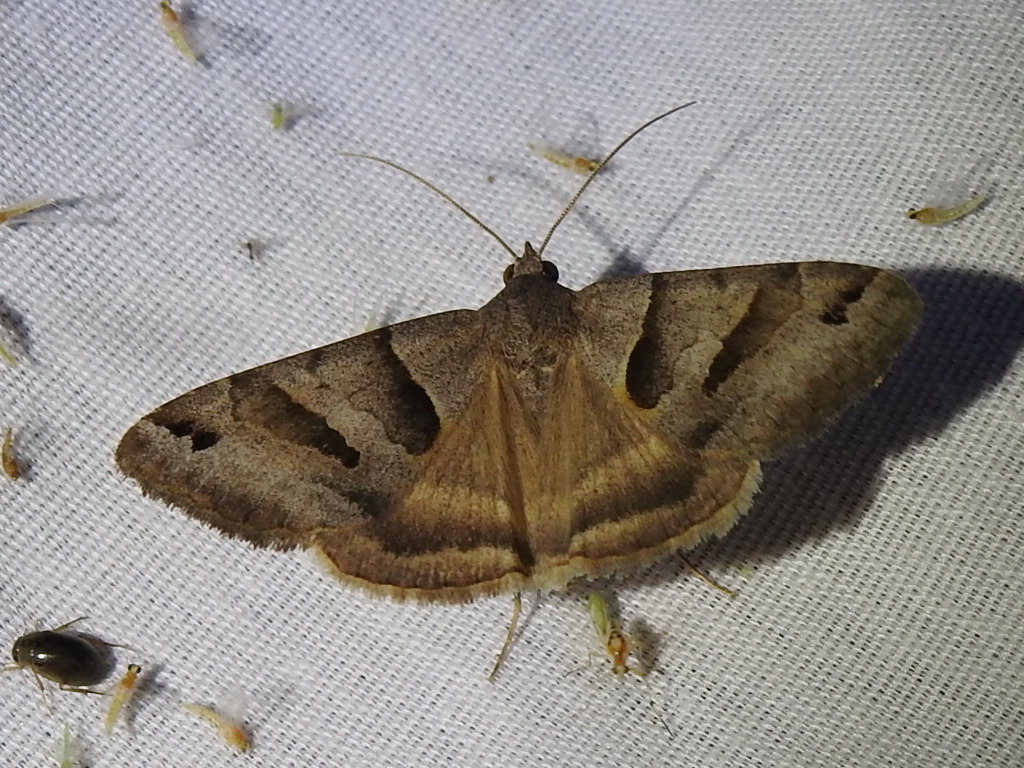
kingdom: Animalia
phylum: Arthropoda
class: Insecta
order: Lepidoptera
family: Erebidae
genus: Caenurgina
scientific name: Caenurgina erechtea
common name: Forage looper moth
